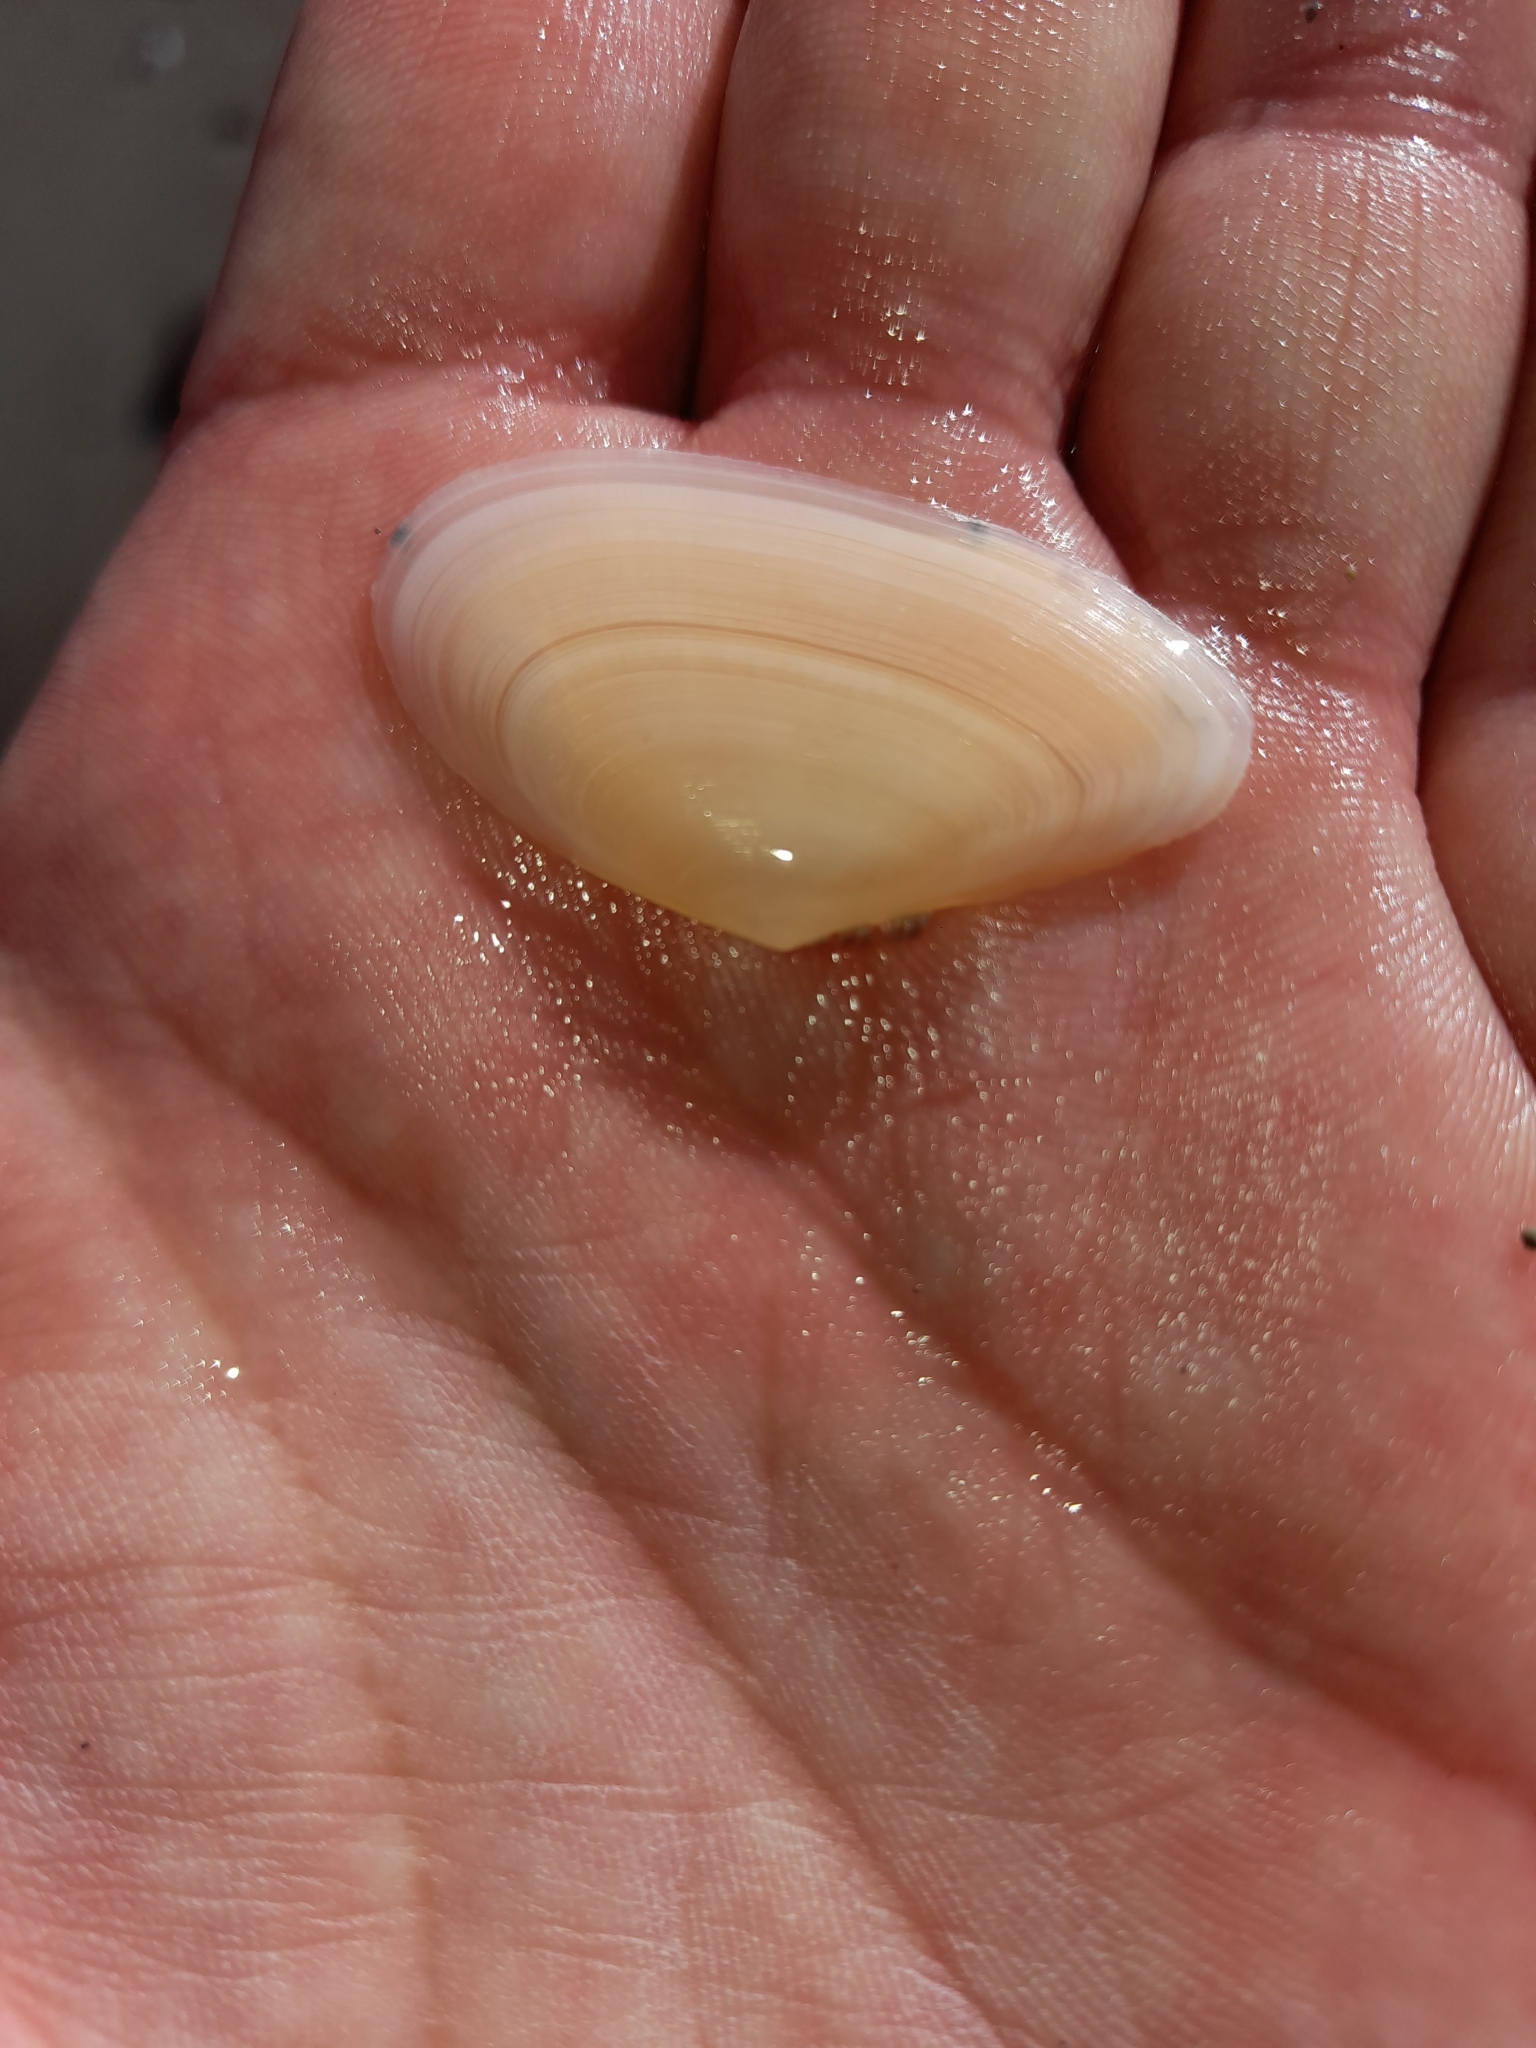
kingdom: Animalia
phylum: Mollusca
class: Bivalvia
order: Cardiida
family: Tellinidae
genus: Peronidia
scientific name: Peronidia albicans
